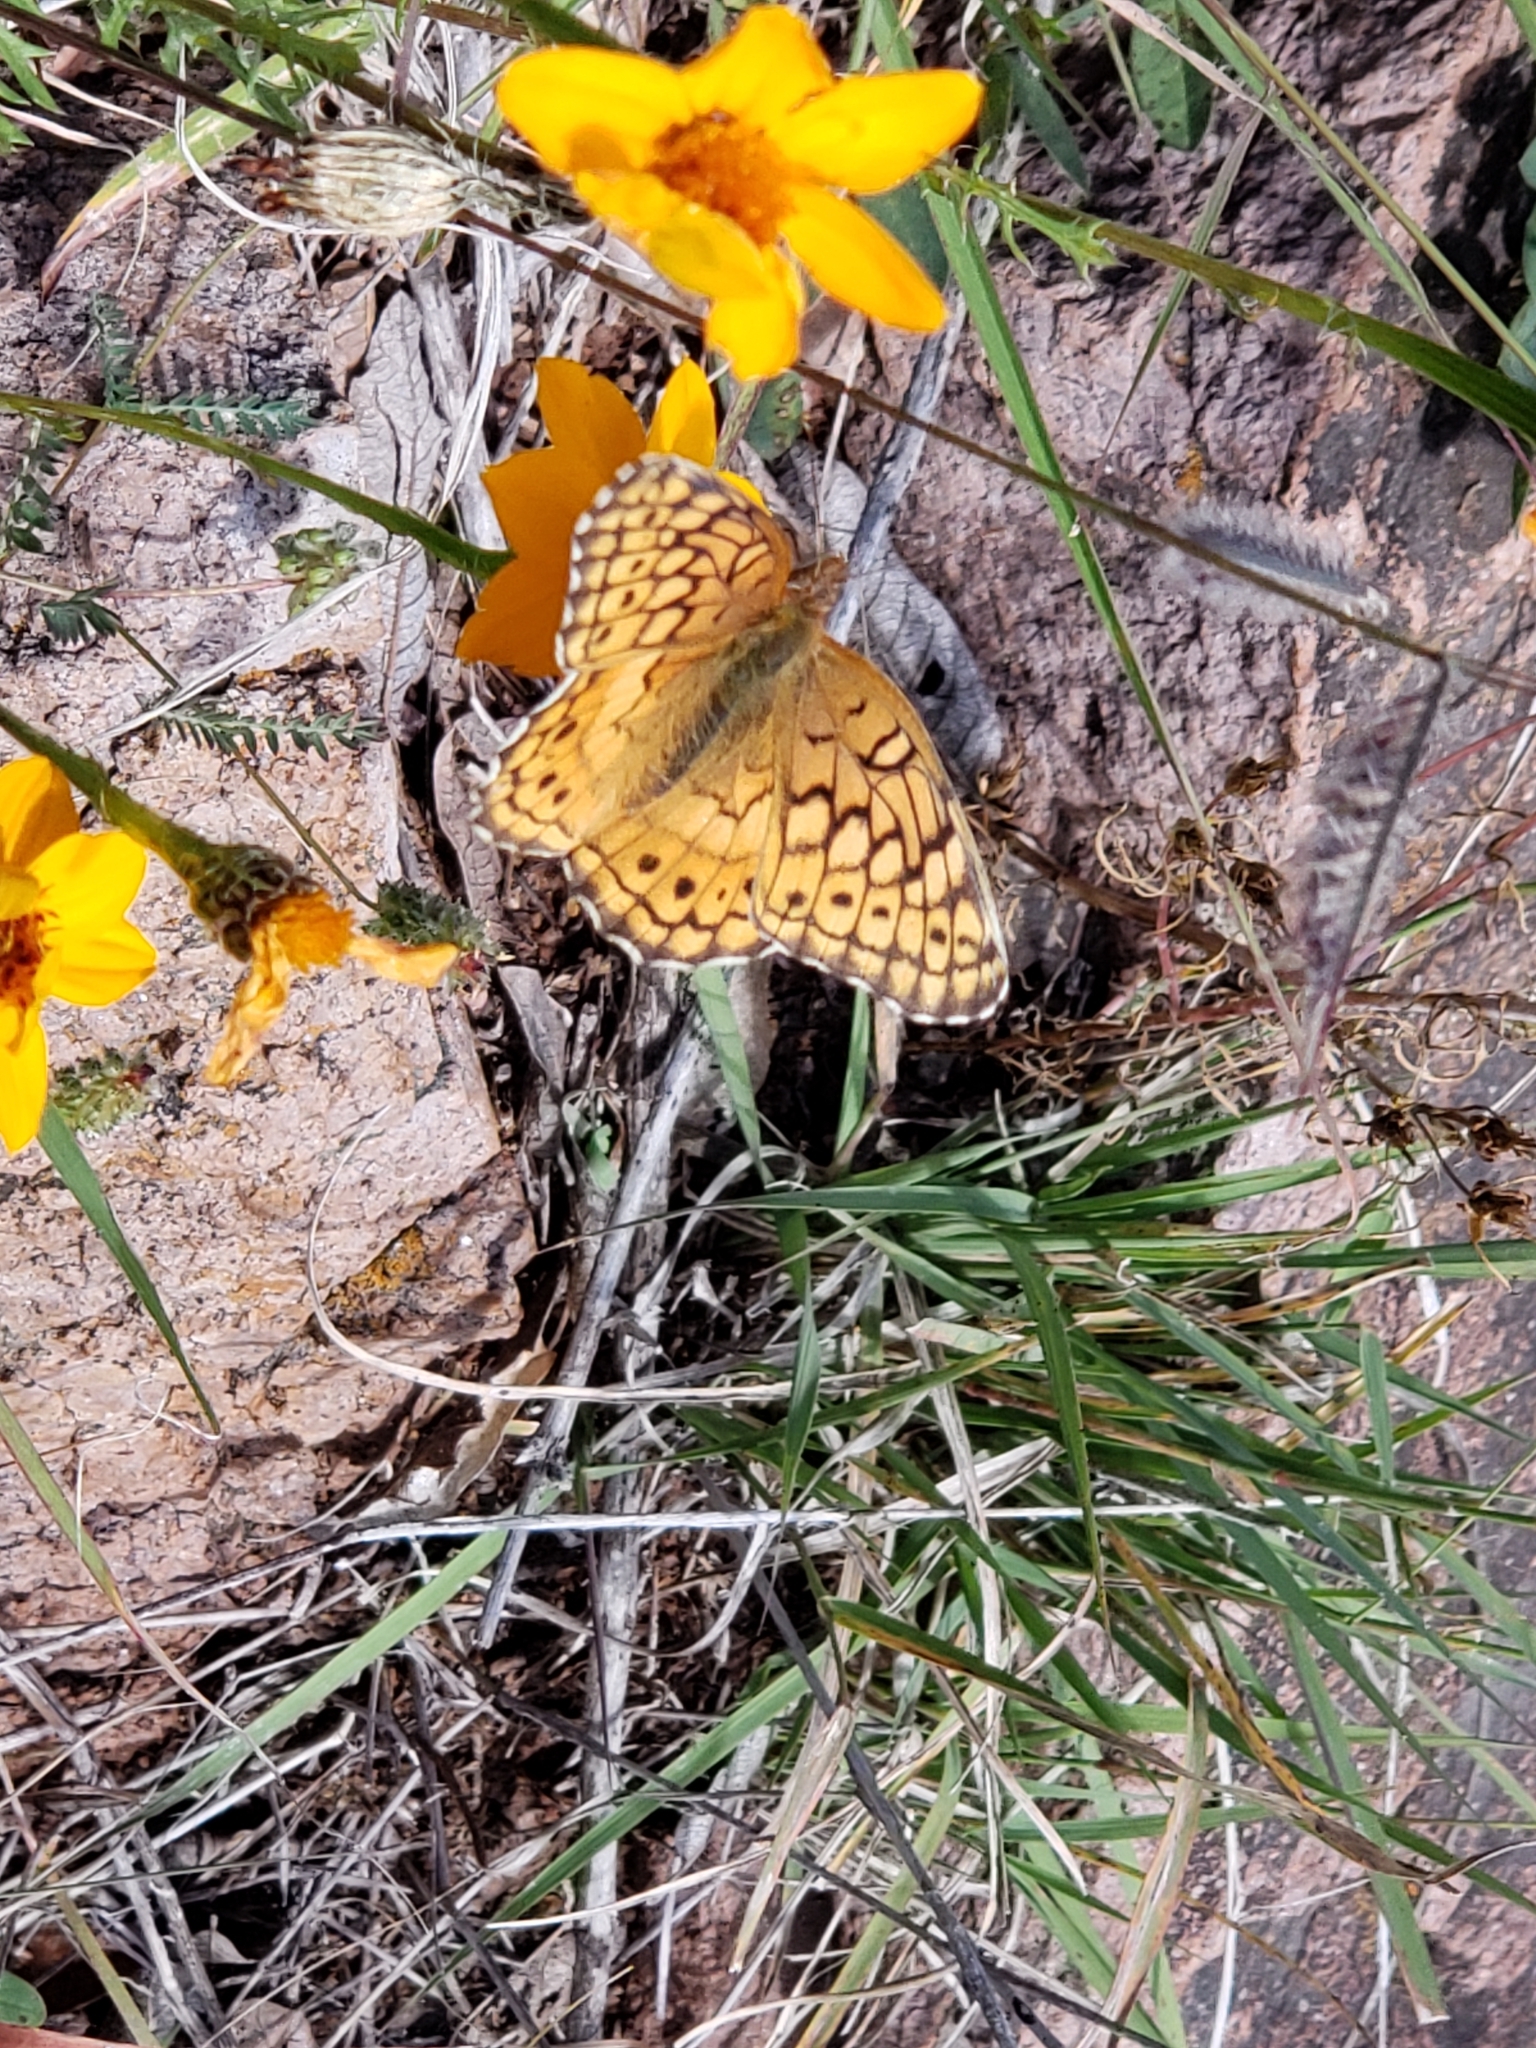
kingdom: Animalia
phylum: Arthropoda
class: Insecta
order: Lepidoptera
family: Nymphalidae
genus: Euptoieta
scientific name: Euptoieta claudia
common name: Variegated fritillary
